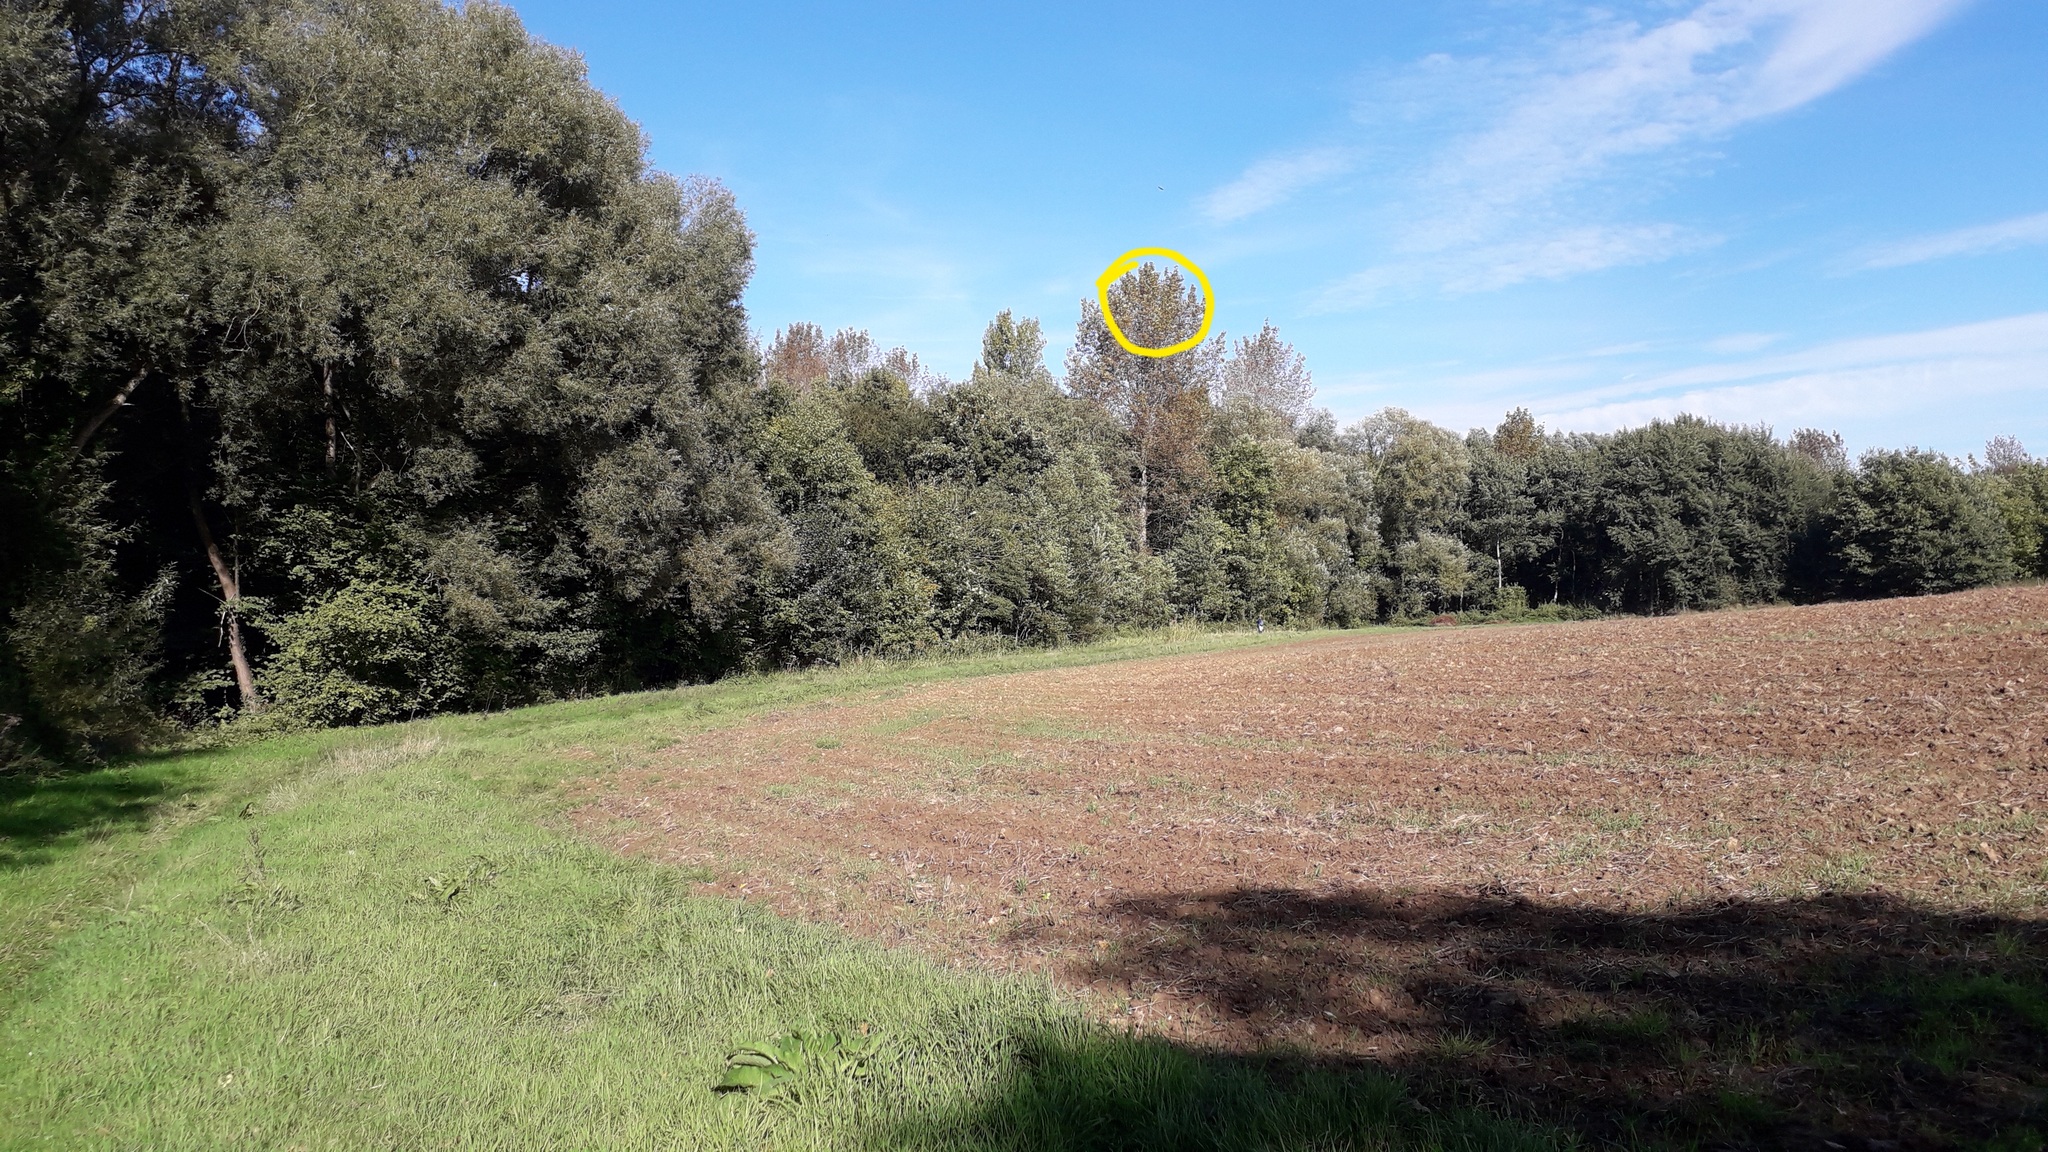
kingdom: Animalia
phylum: Arthropoda
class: Insecta
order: Hymenoptera
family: Vespidae
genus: Vespa
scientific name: Vespa velutina
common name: Asian hornet
